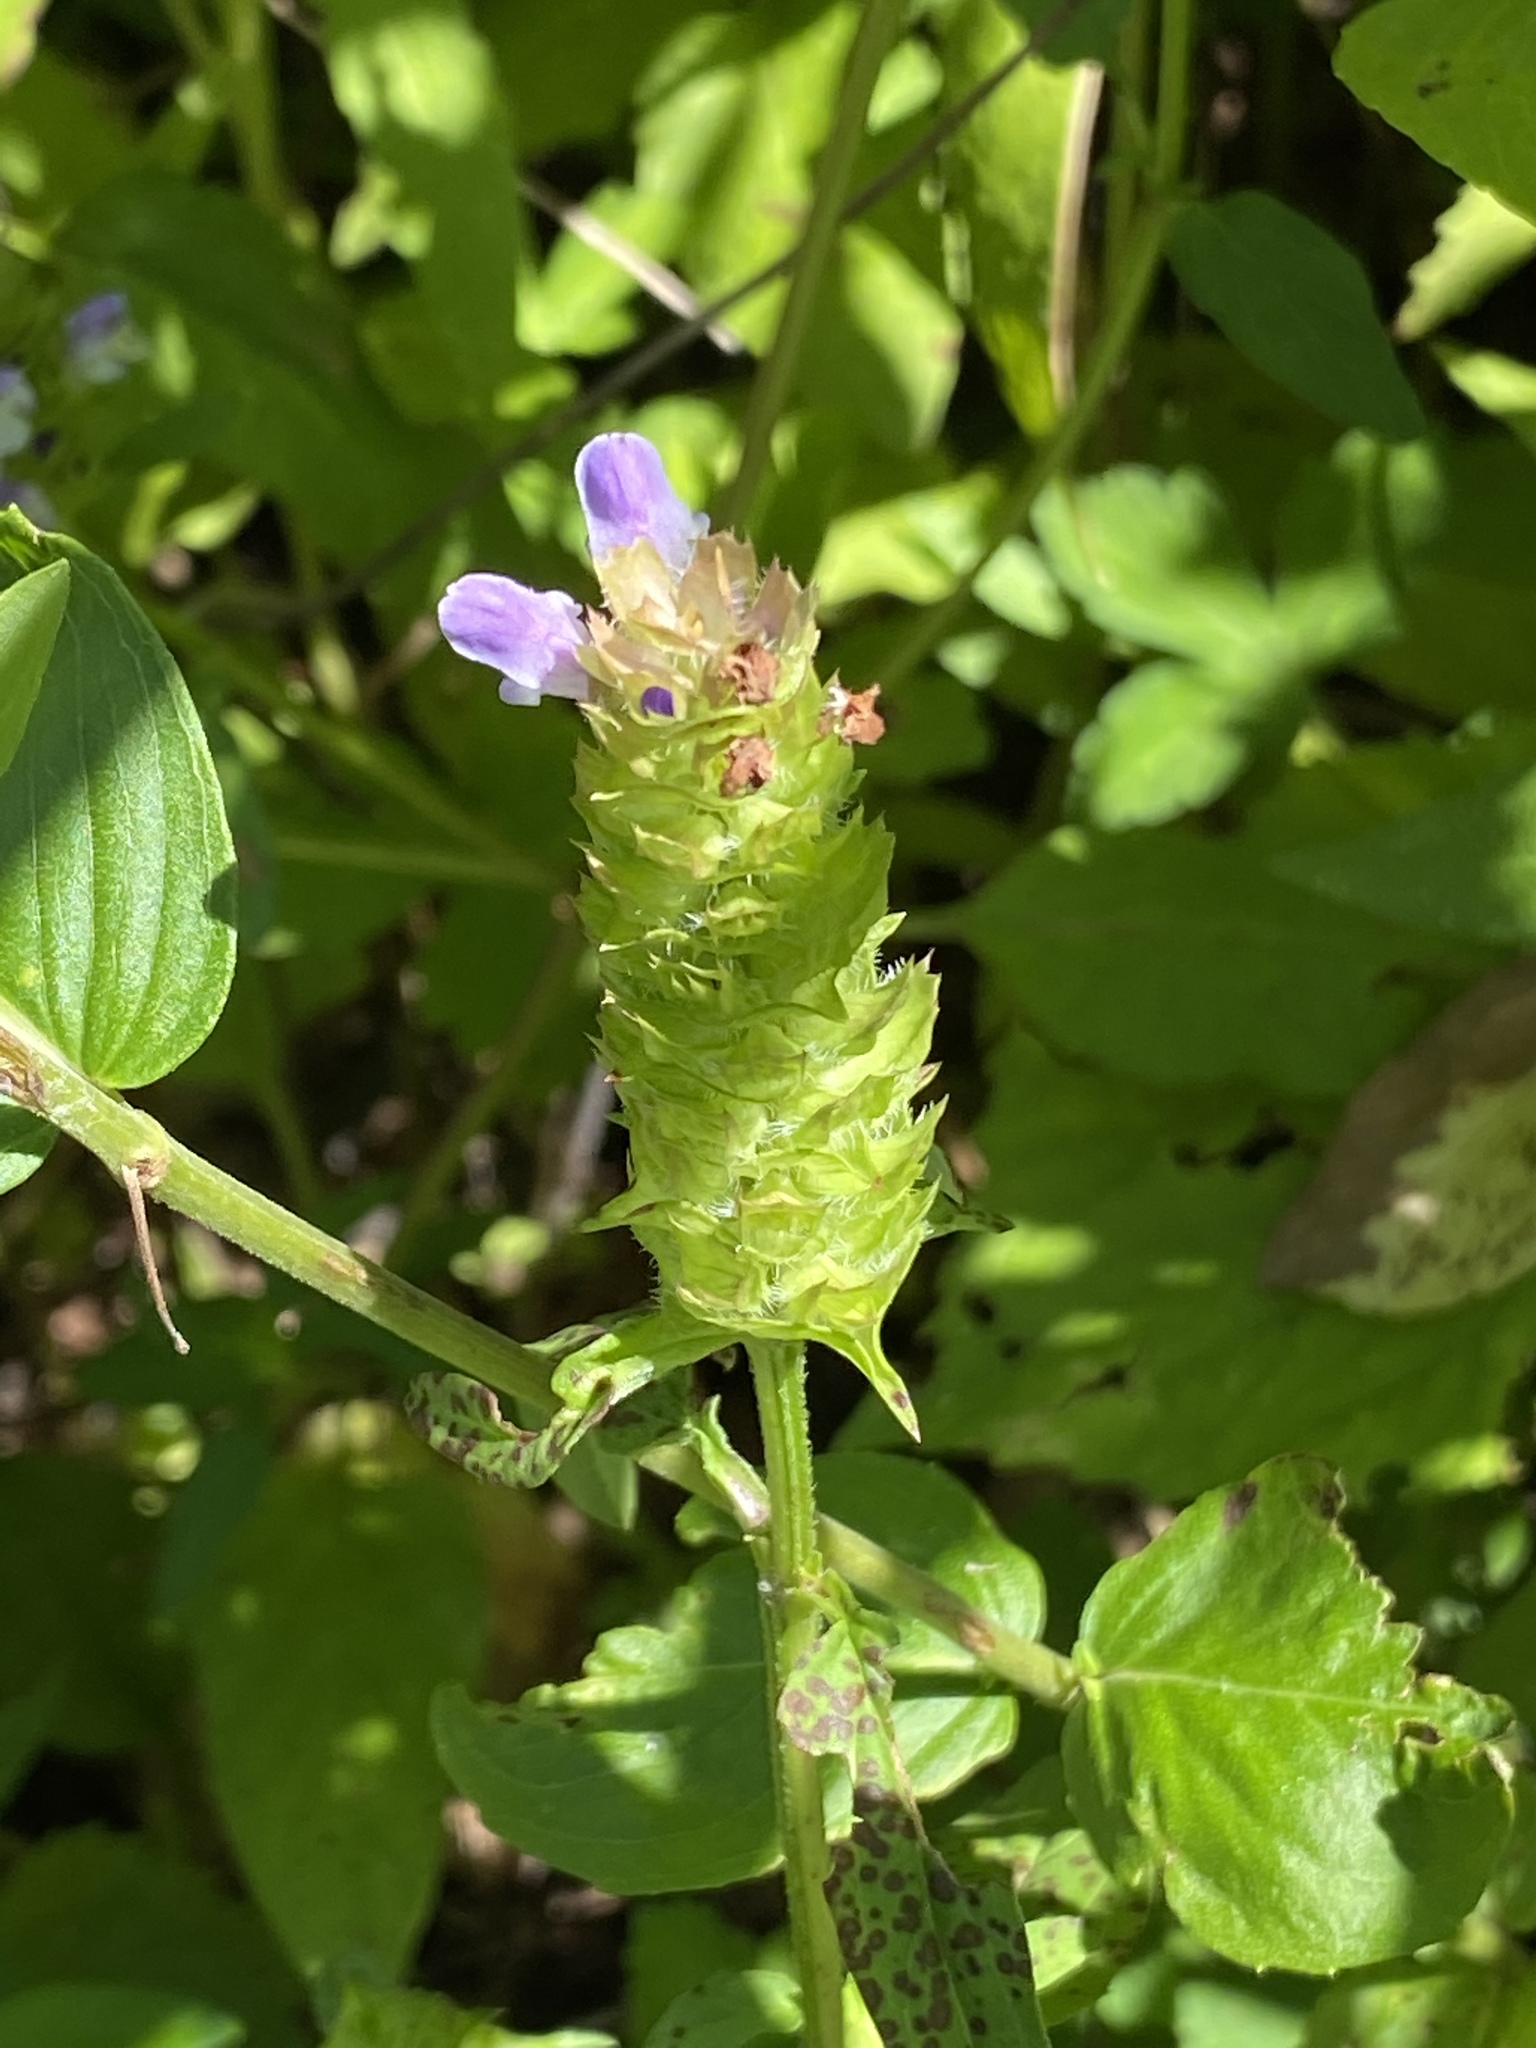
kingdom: Plantae
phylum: Tracheophyta
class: Magnoliopsida
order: Lamiales
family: Lamiaceae
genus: Prunella
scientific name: Prunella vulgaris
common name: Heal-all
